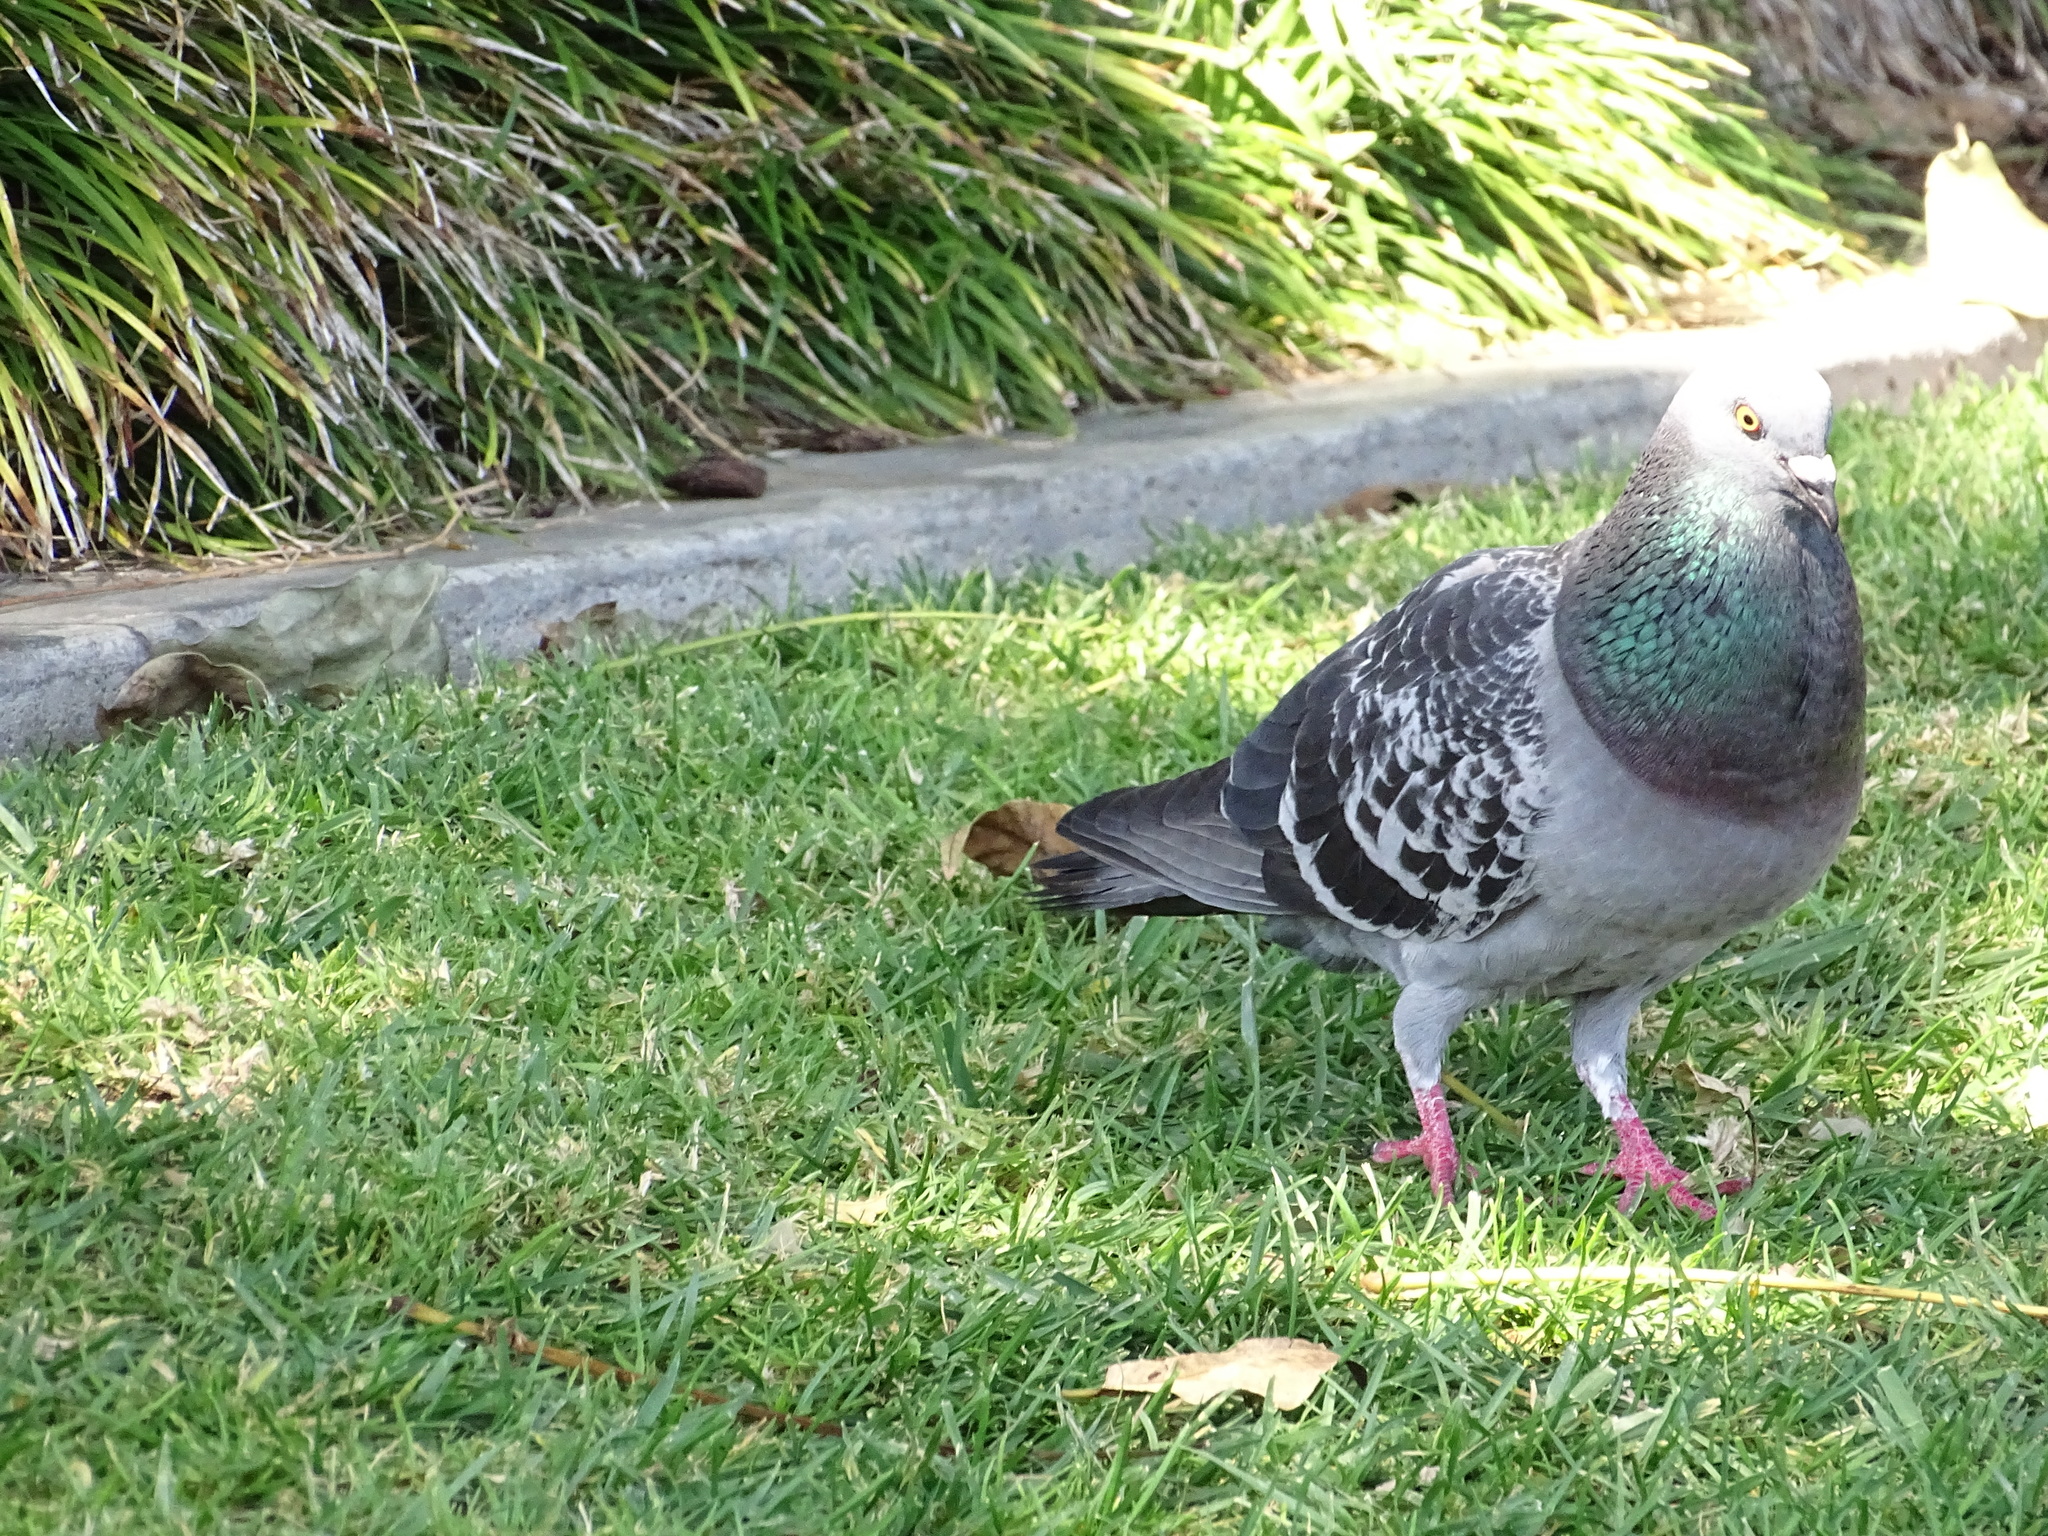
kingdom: Animalia
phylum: Chordata
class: Aves
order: Columbiformes
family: Columbidae
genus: Columba
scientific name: Columba livia
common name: Rock pigeon
